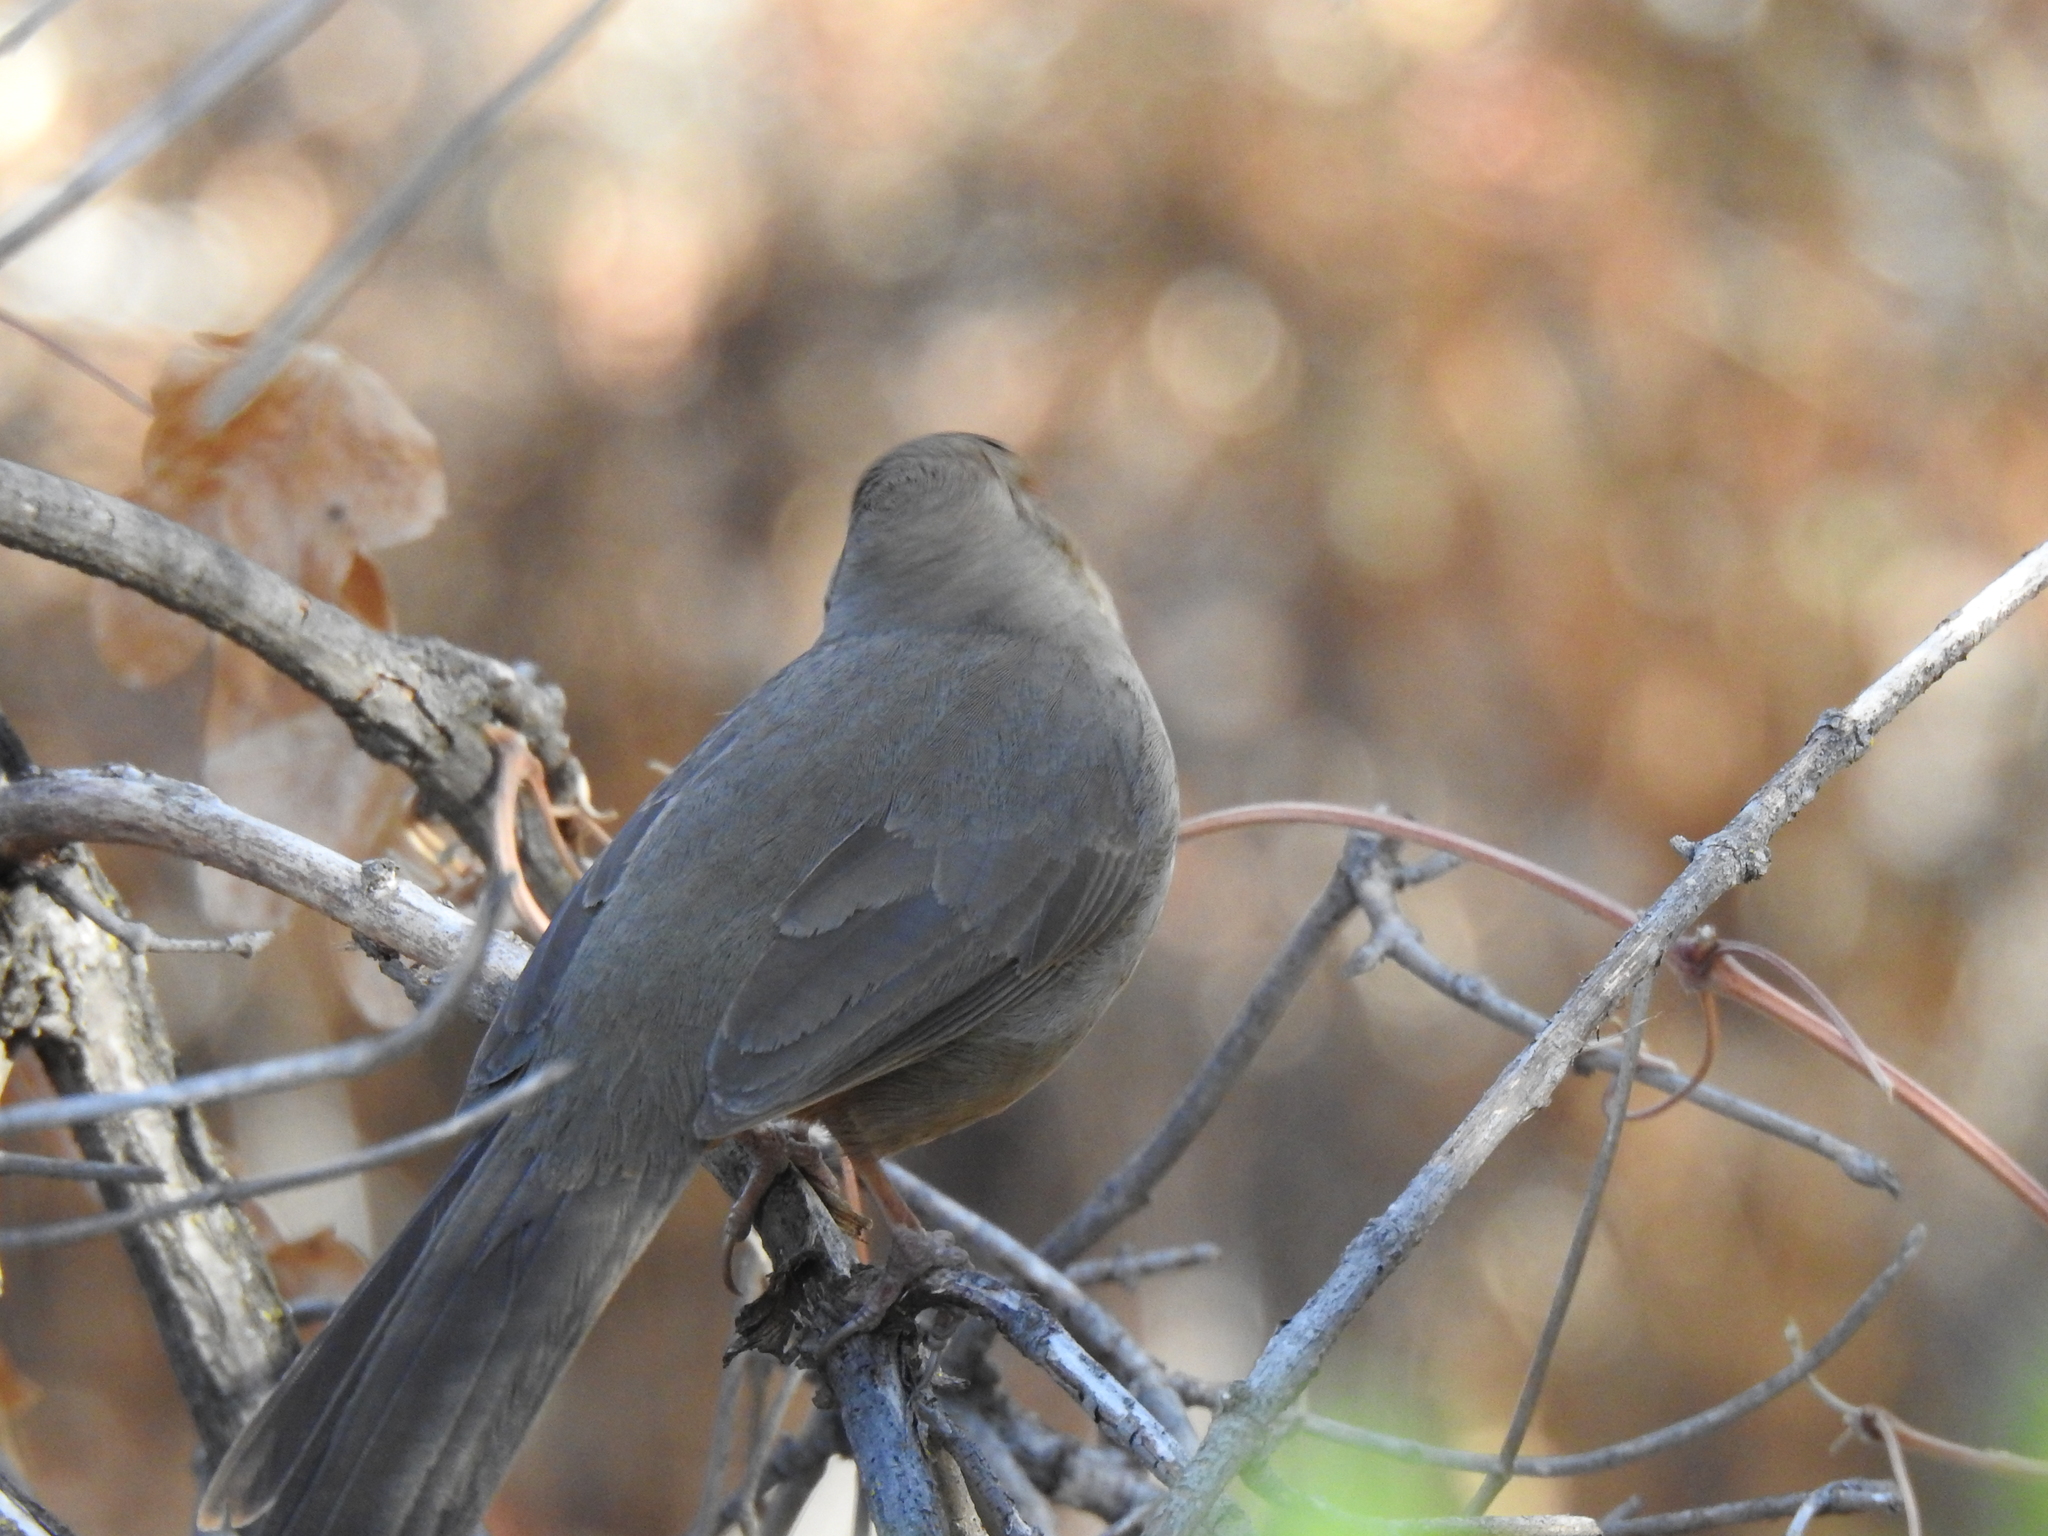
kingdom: Animalia
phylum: Chordata
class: Aves
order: Passeriformes
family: Passerellidae
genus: Melozone
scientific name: Melozone crissalis
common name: California towhee
